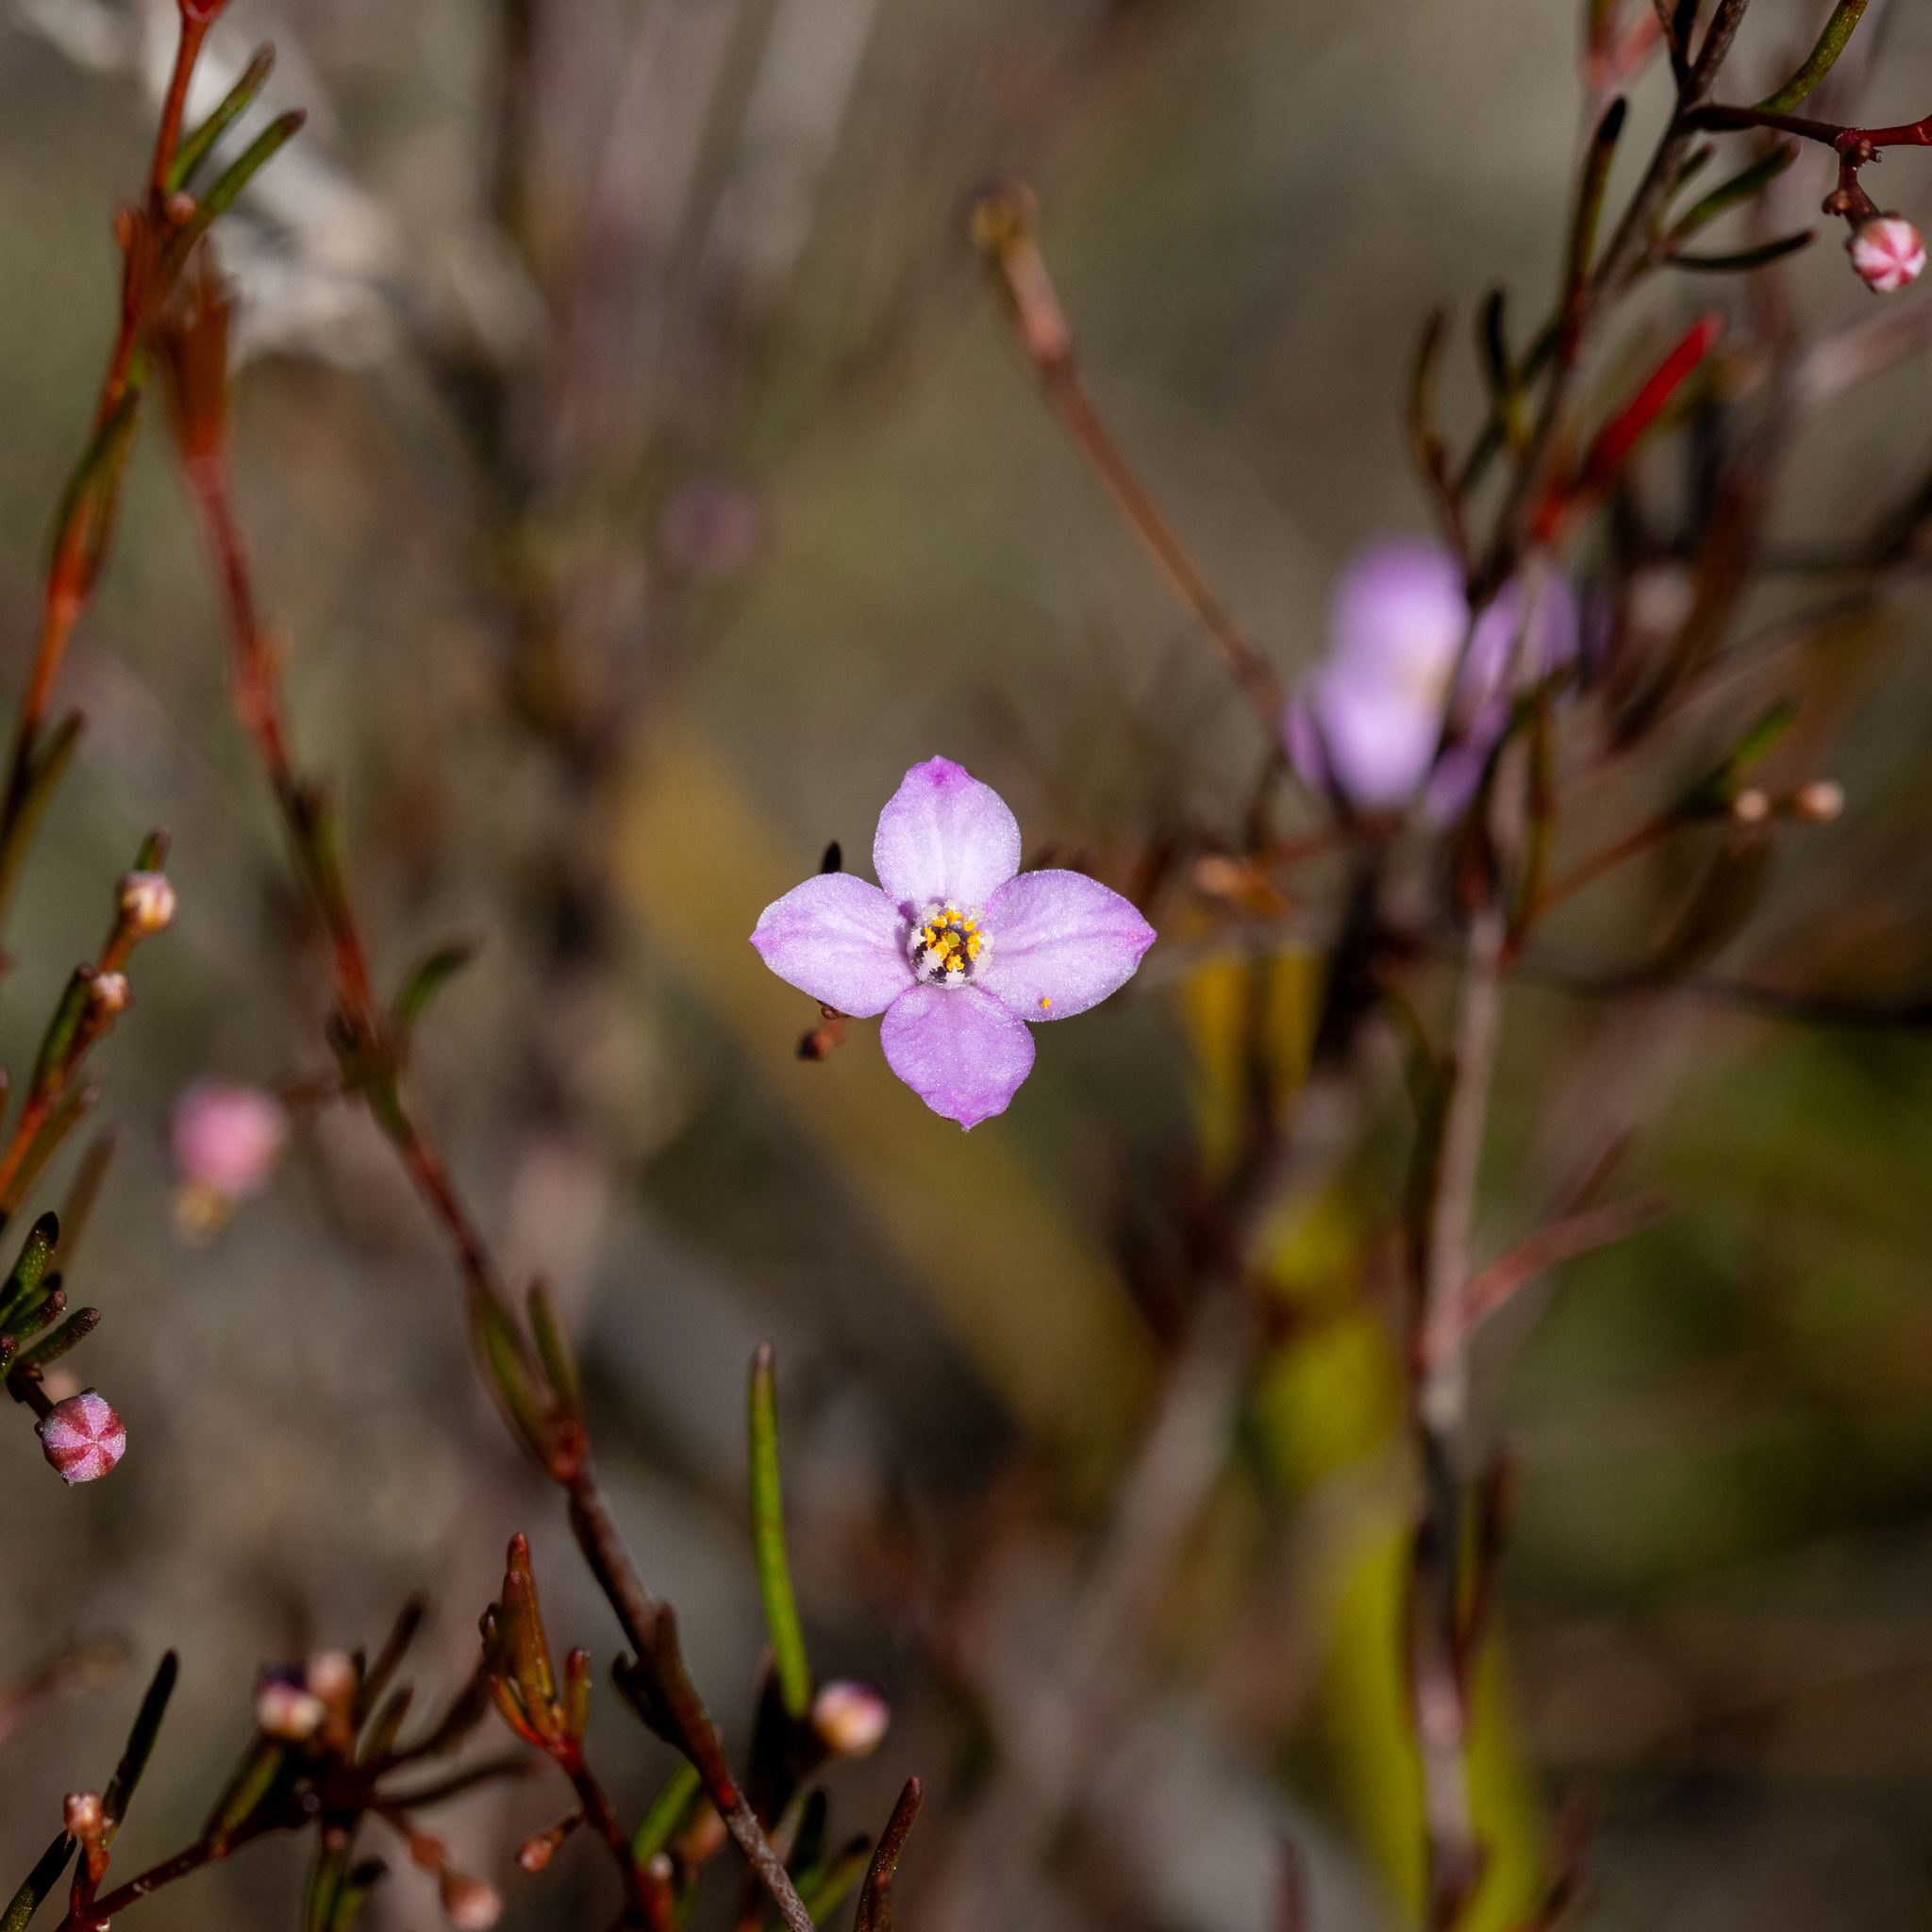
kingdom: Plantae
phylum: Tracheophyta
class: Magnoliopsida
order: Sapindales
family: Rutaceae
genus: Boronia
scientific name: Boronia filifolia
